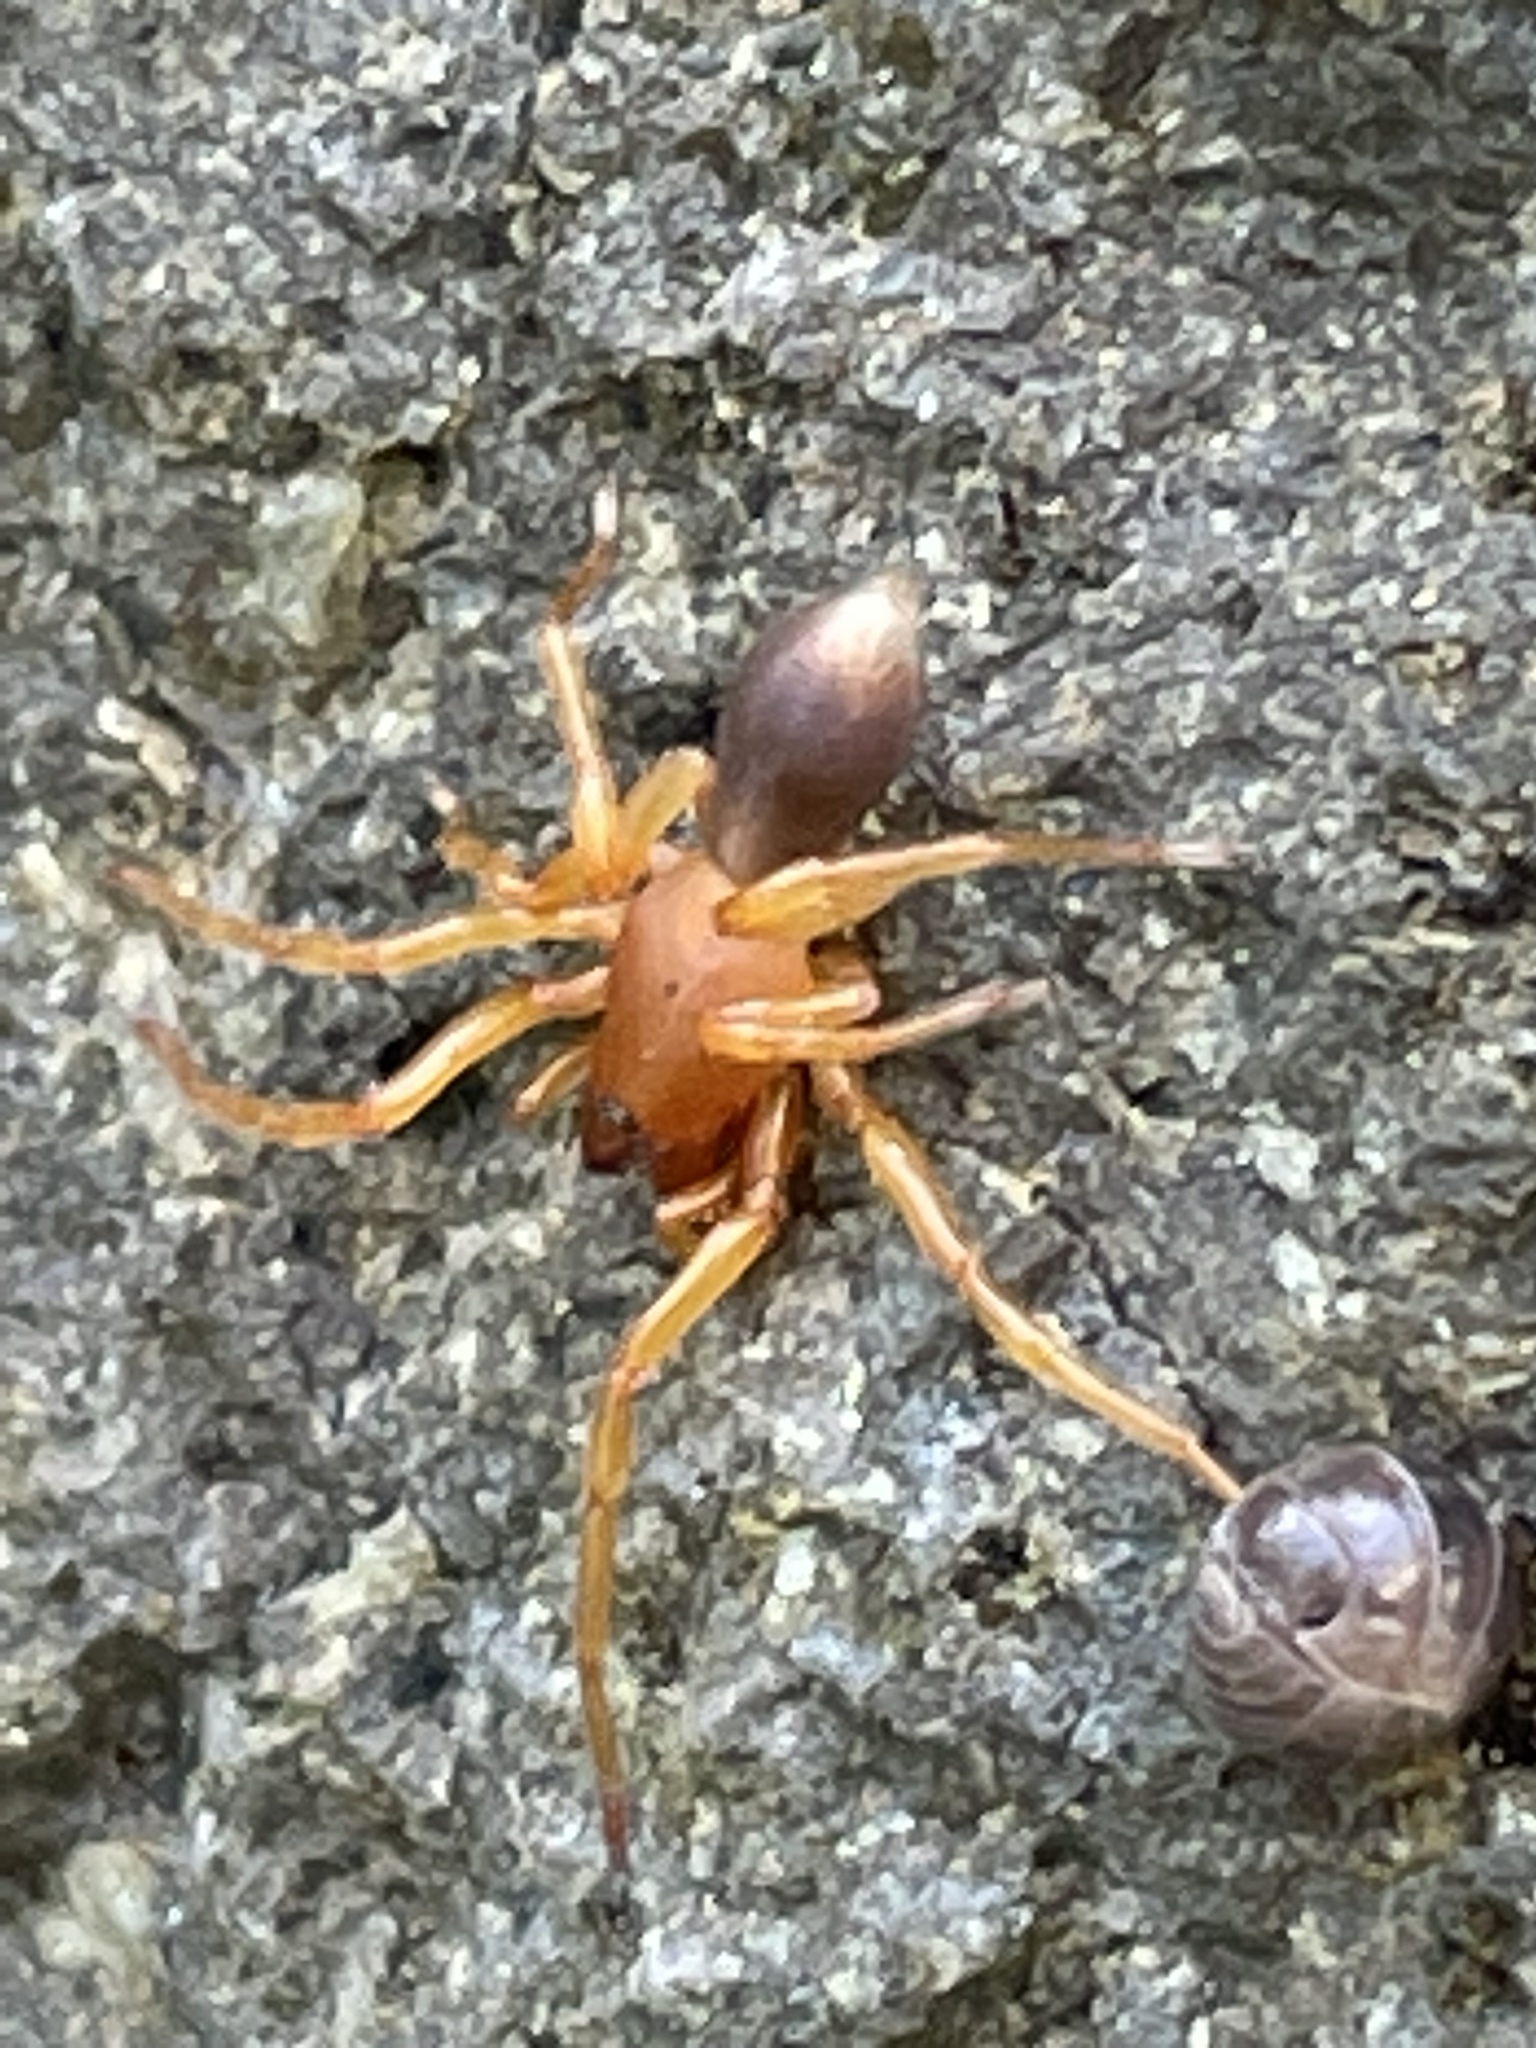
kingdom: Animalia
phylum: Arthropoda
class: Arachnida
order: Araneae
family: Dysderidae
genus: Dysdera
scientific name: Dysdera crocata
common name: Woodlouse spider
